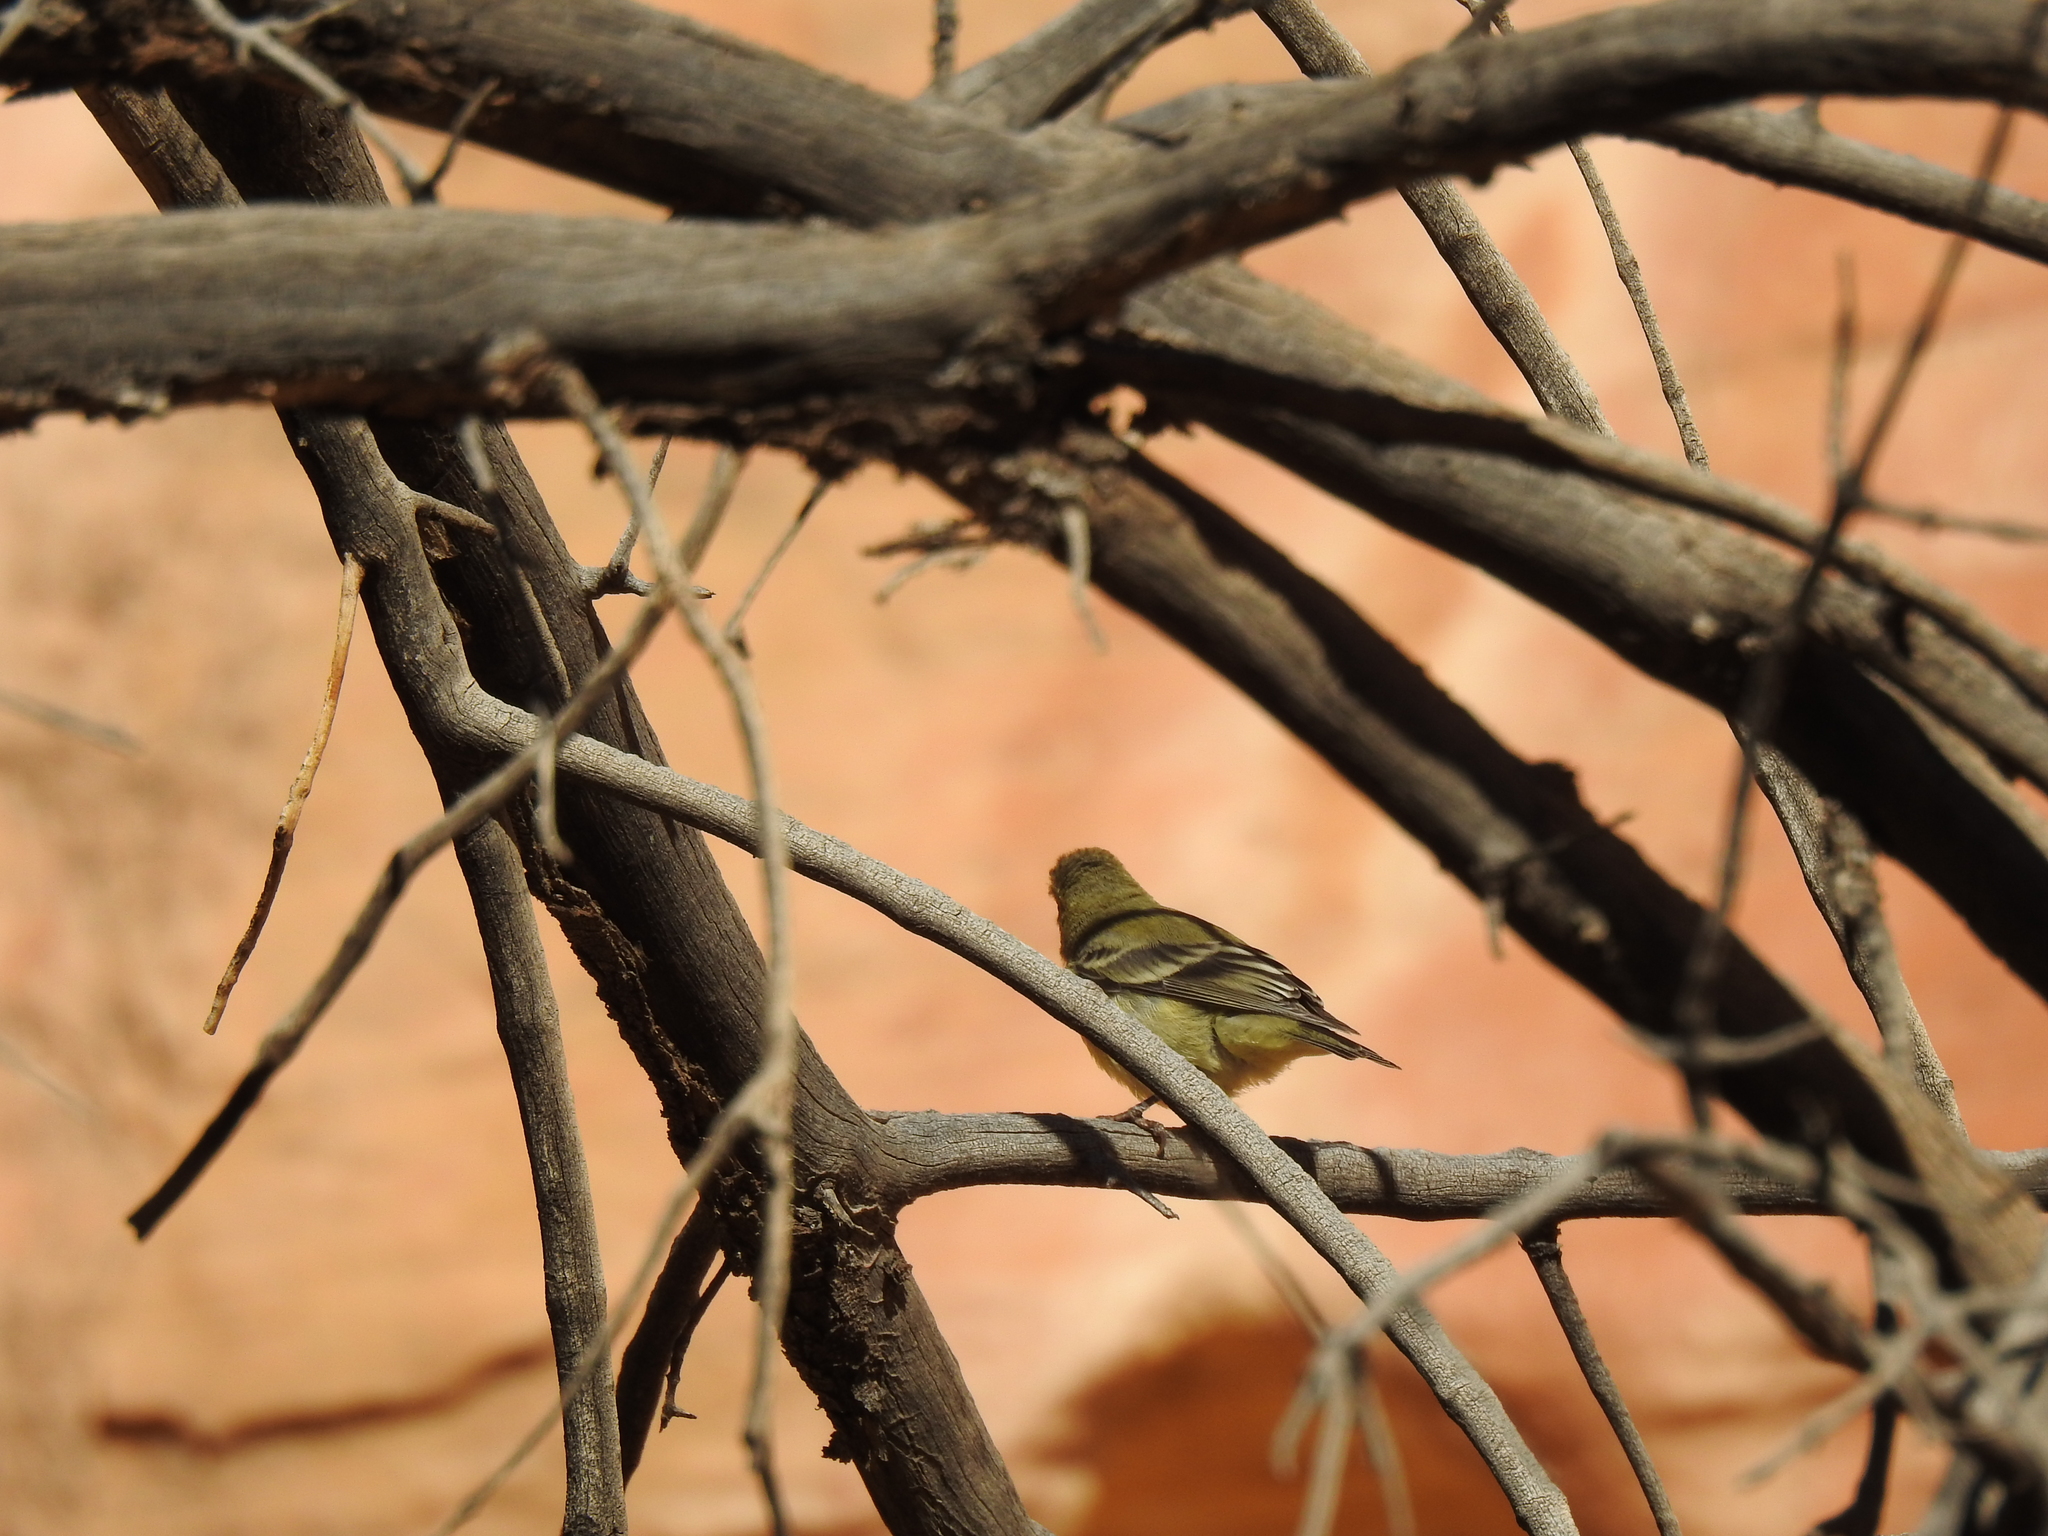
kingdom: Animalia
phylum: Chordata
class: Aves
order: Passeriformes
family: Fringillidae
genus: Spinus
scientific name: Spinus psaltria
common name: Lesser goldfinch
